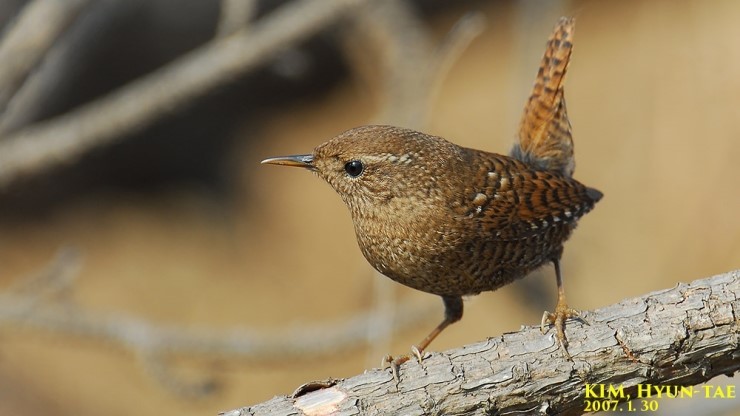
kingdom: Animalia
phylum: Chordata
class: Aves
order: Passeriformes
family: Troglodytidae
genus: Troglodytes
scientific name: Troglodytes troglodytes
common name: Eurasian wren
